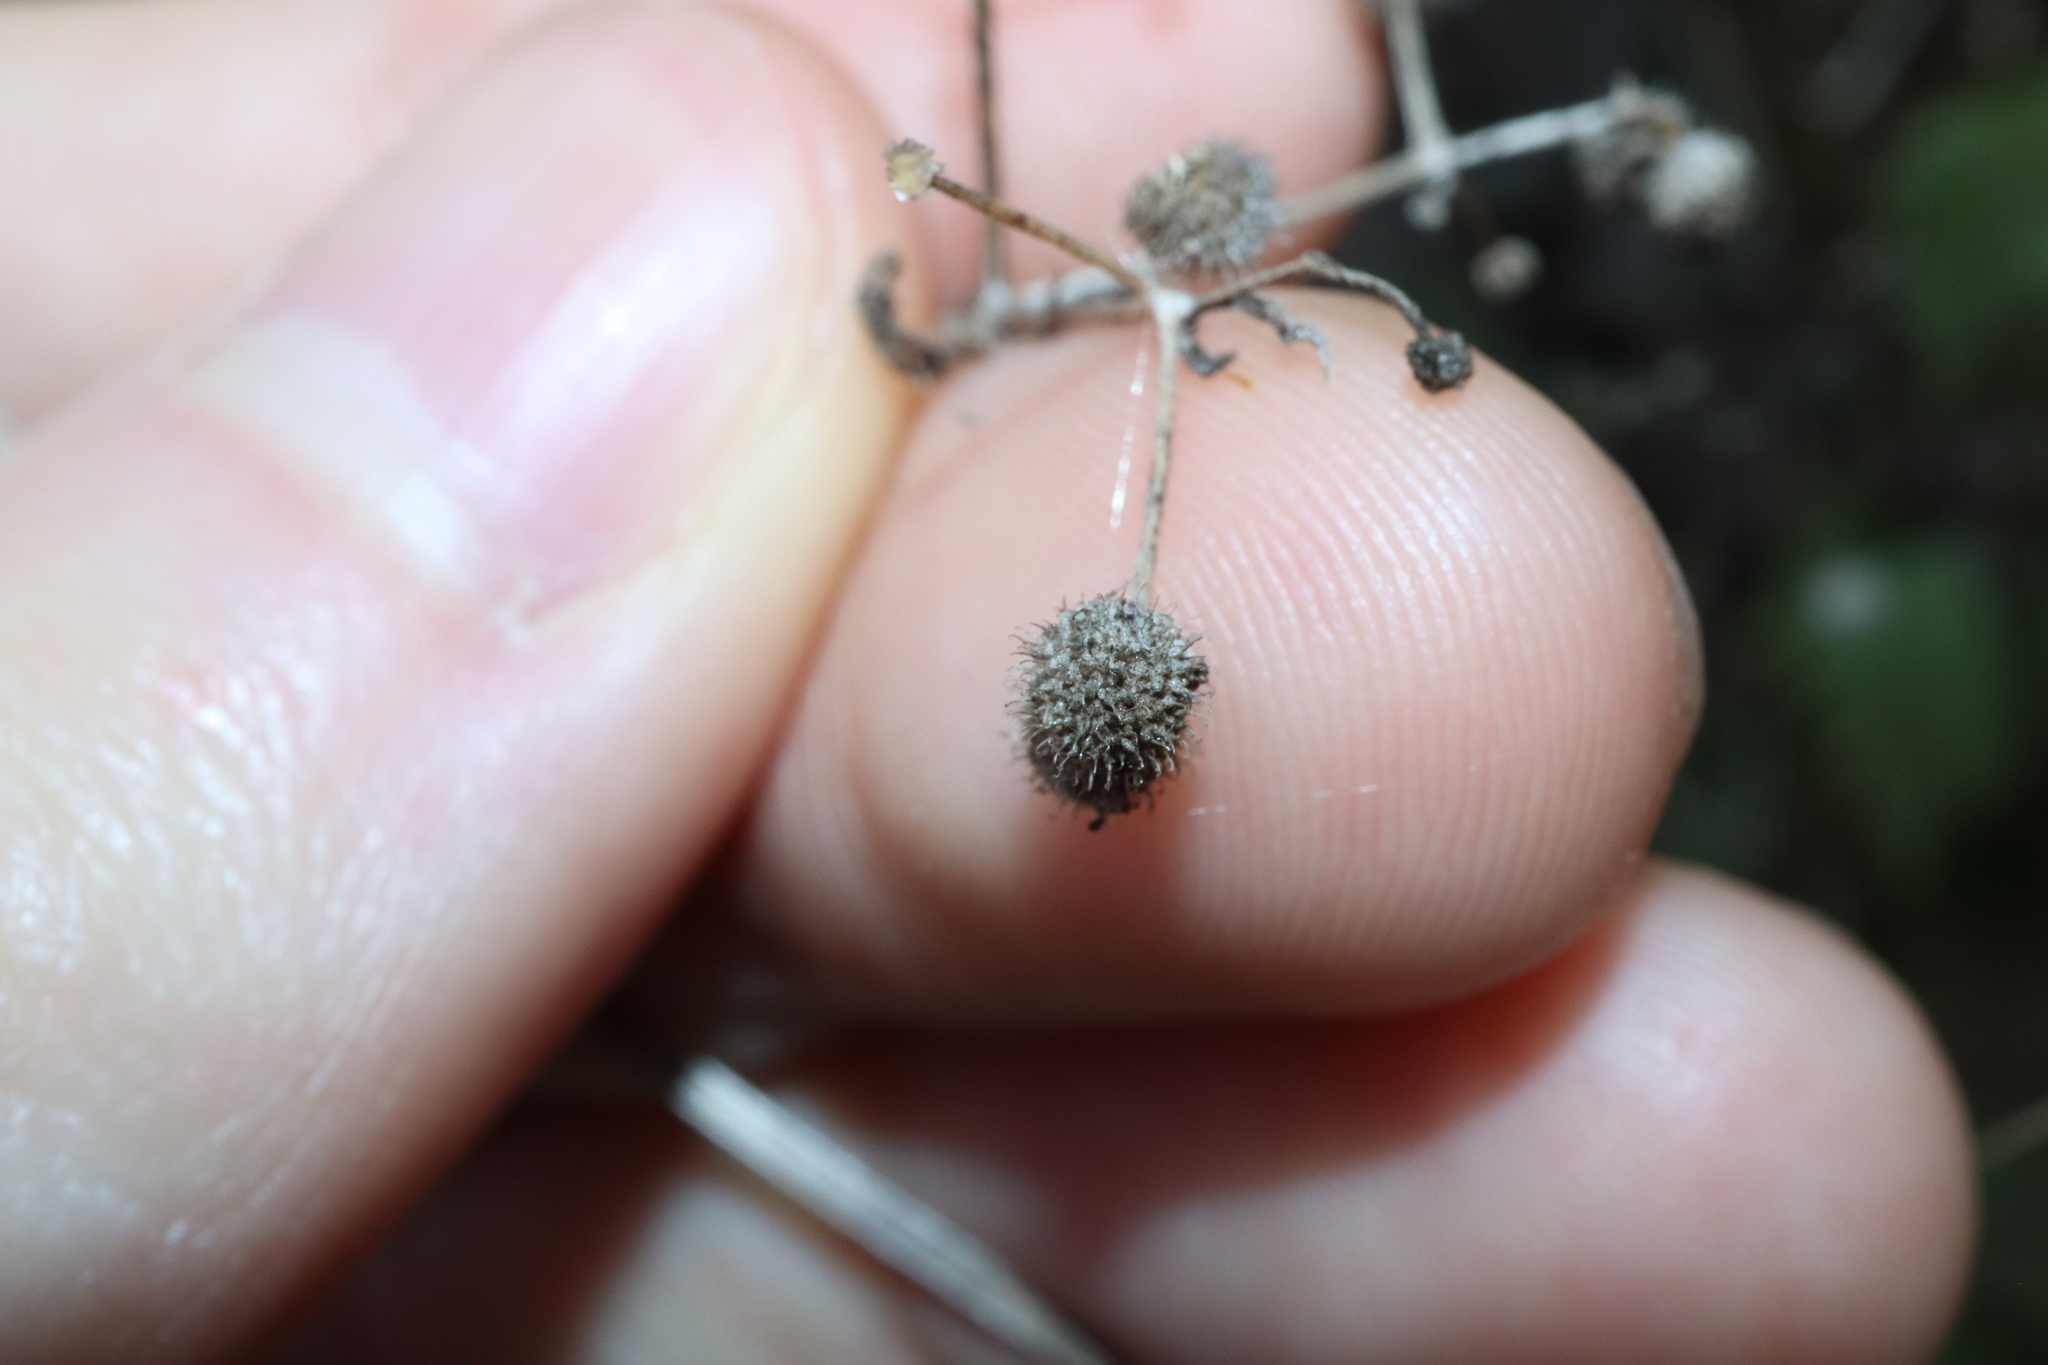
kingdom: Plantae
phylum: Tracheophyta
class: Magnoliopsida
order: Gentianales
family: Rubiaceae
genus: Galium
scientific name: Galium aparine
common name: Cleavers
